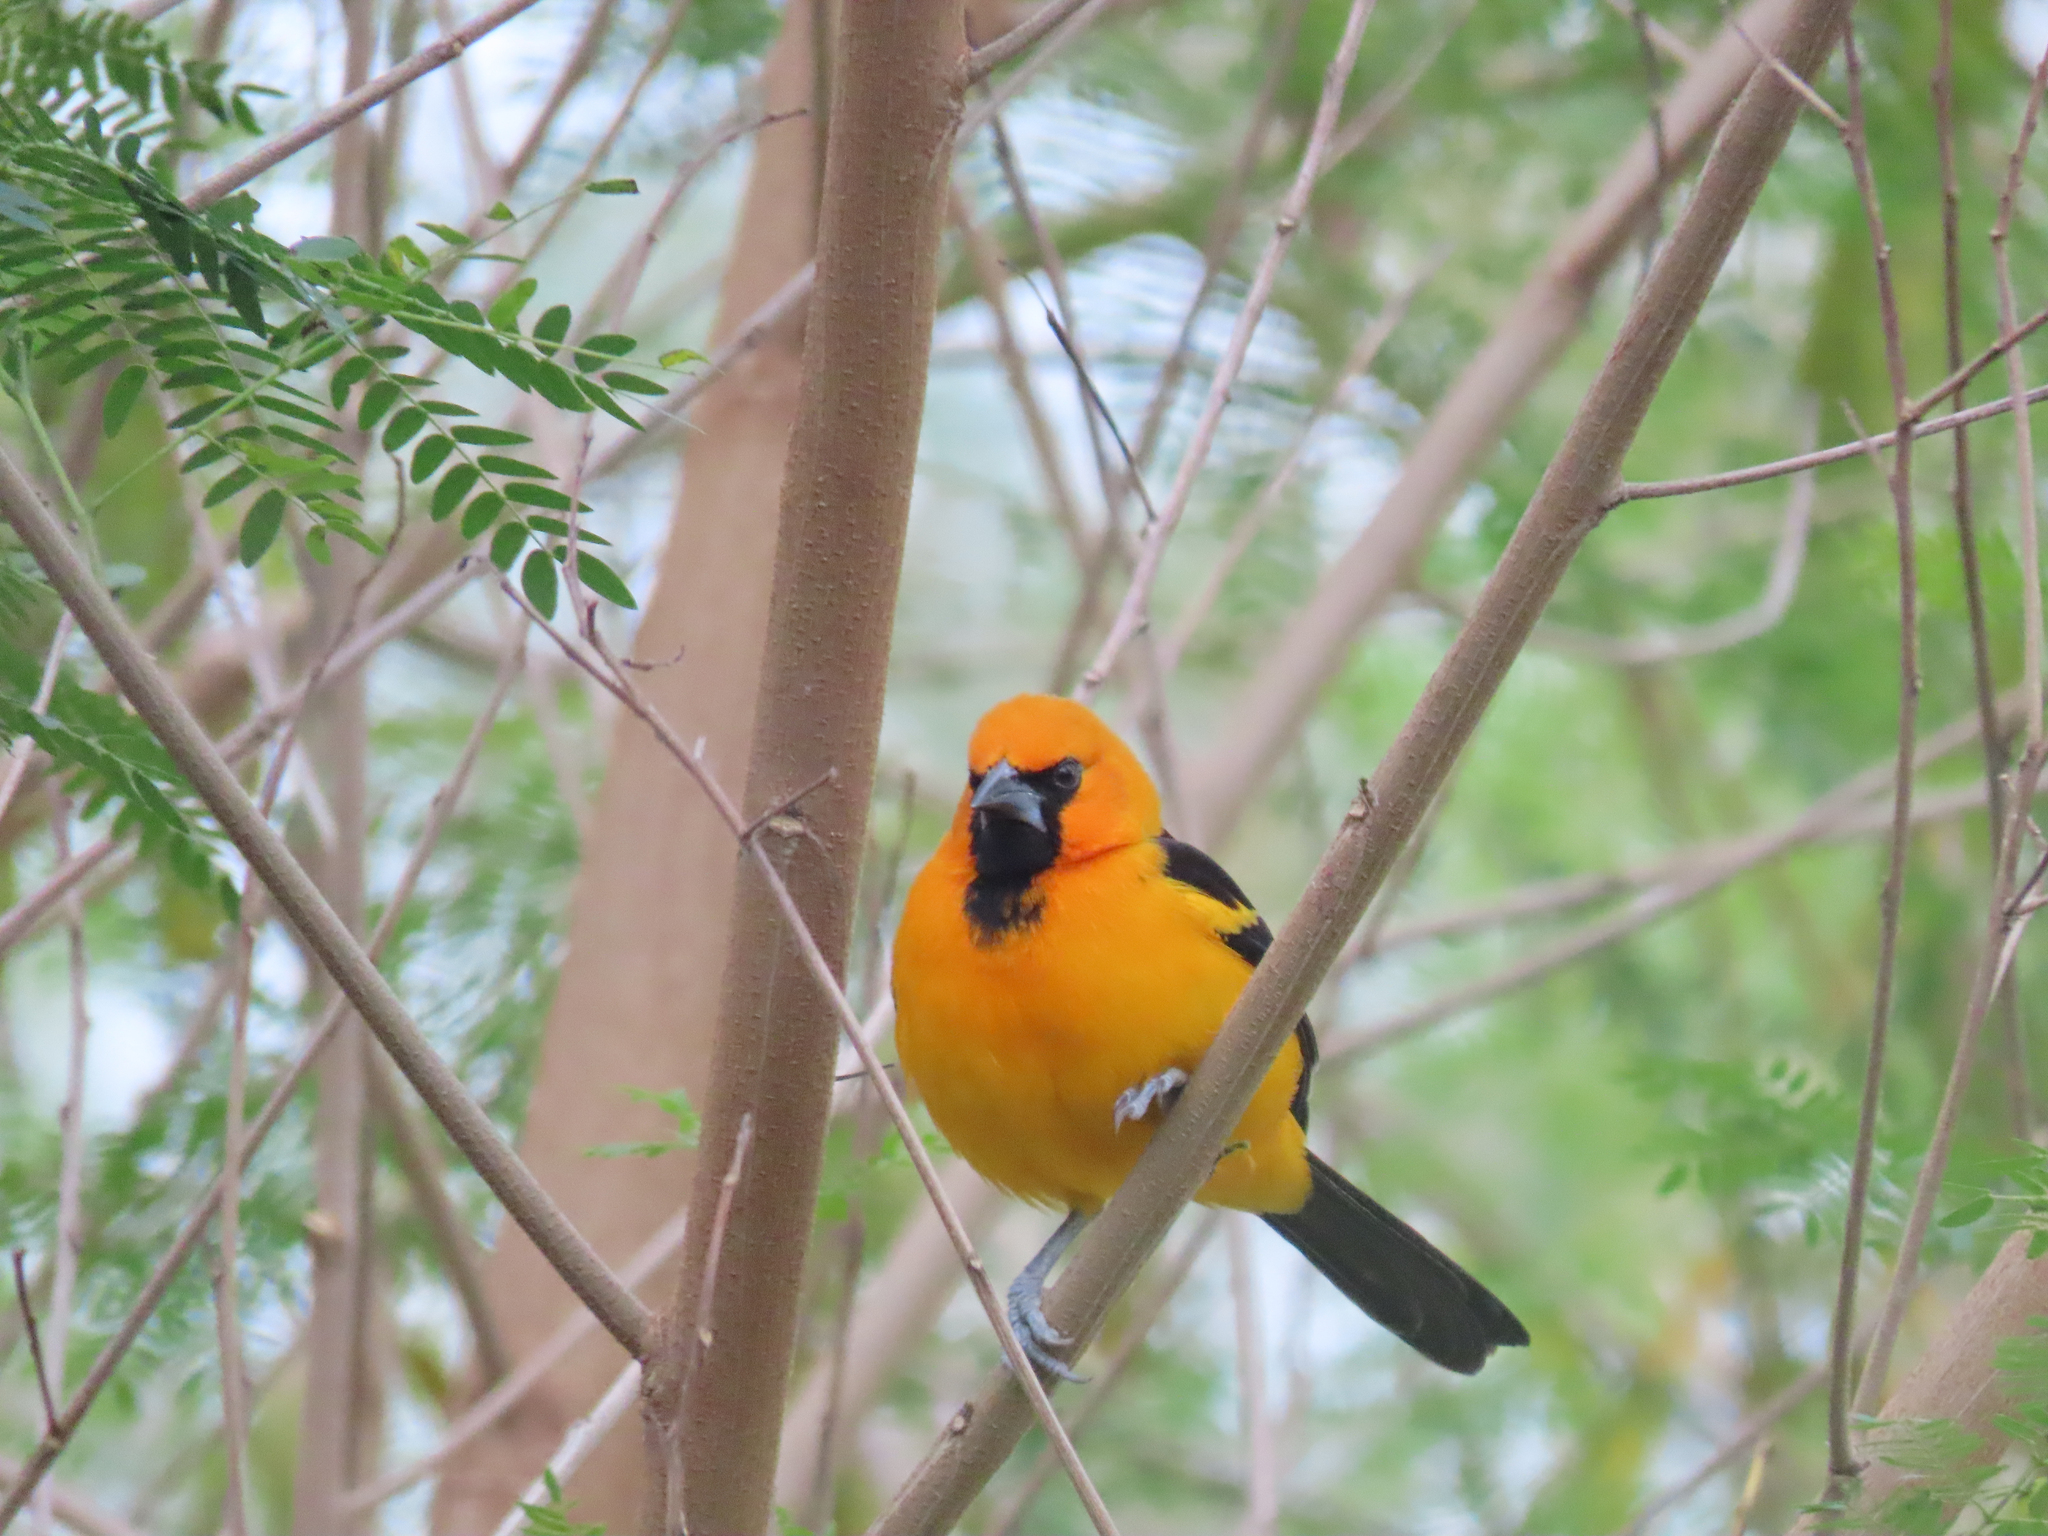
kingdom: Animalia
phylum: Chordata
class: Aves
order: Passeriformes
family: Icteridae
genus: Icterus
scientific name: Icterus gularis
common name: Altamira oriole
